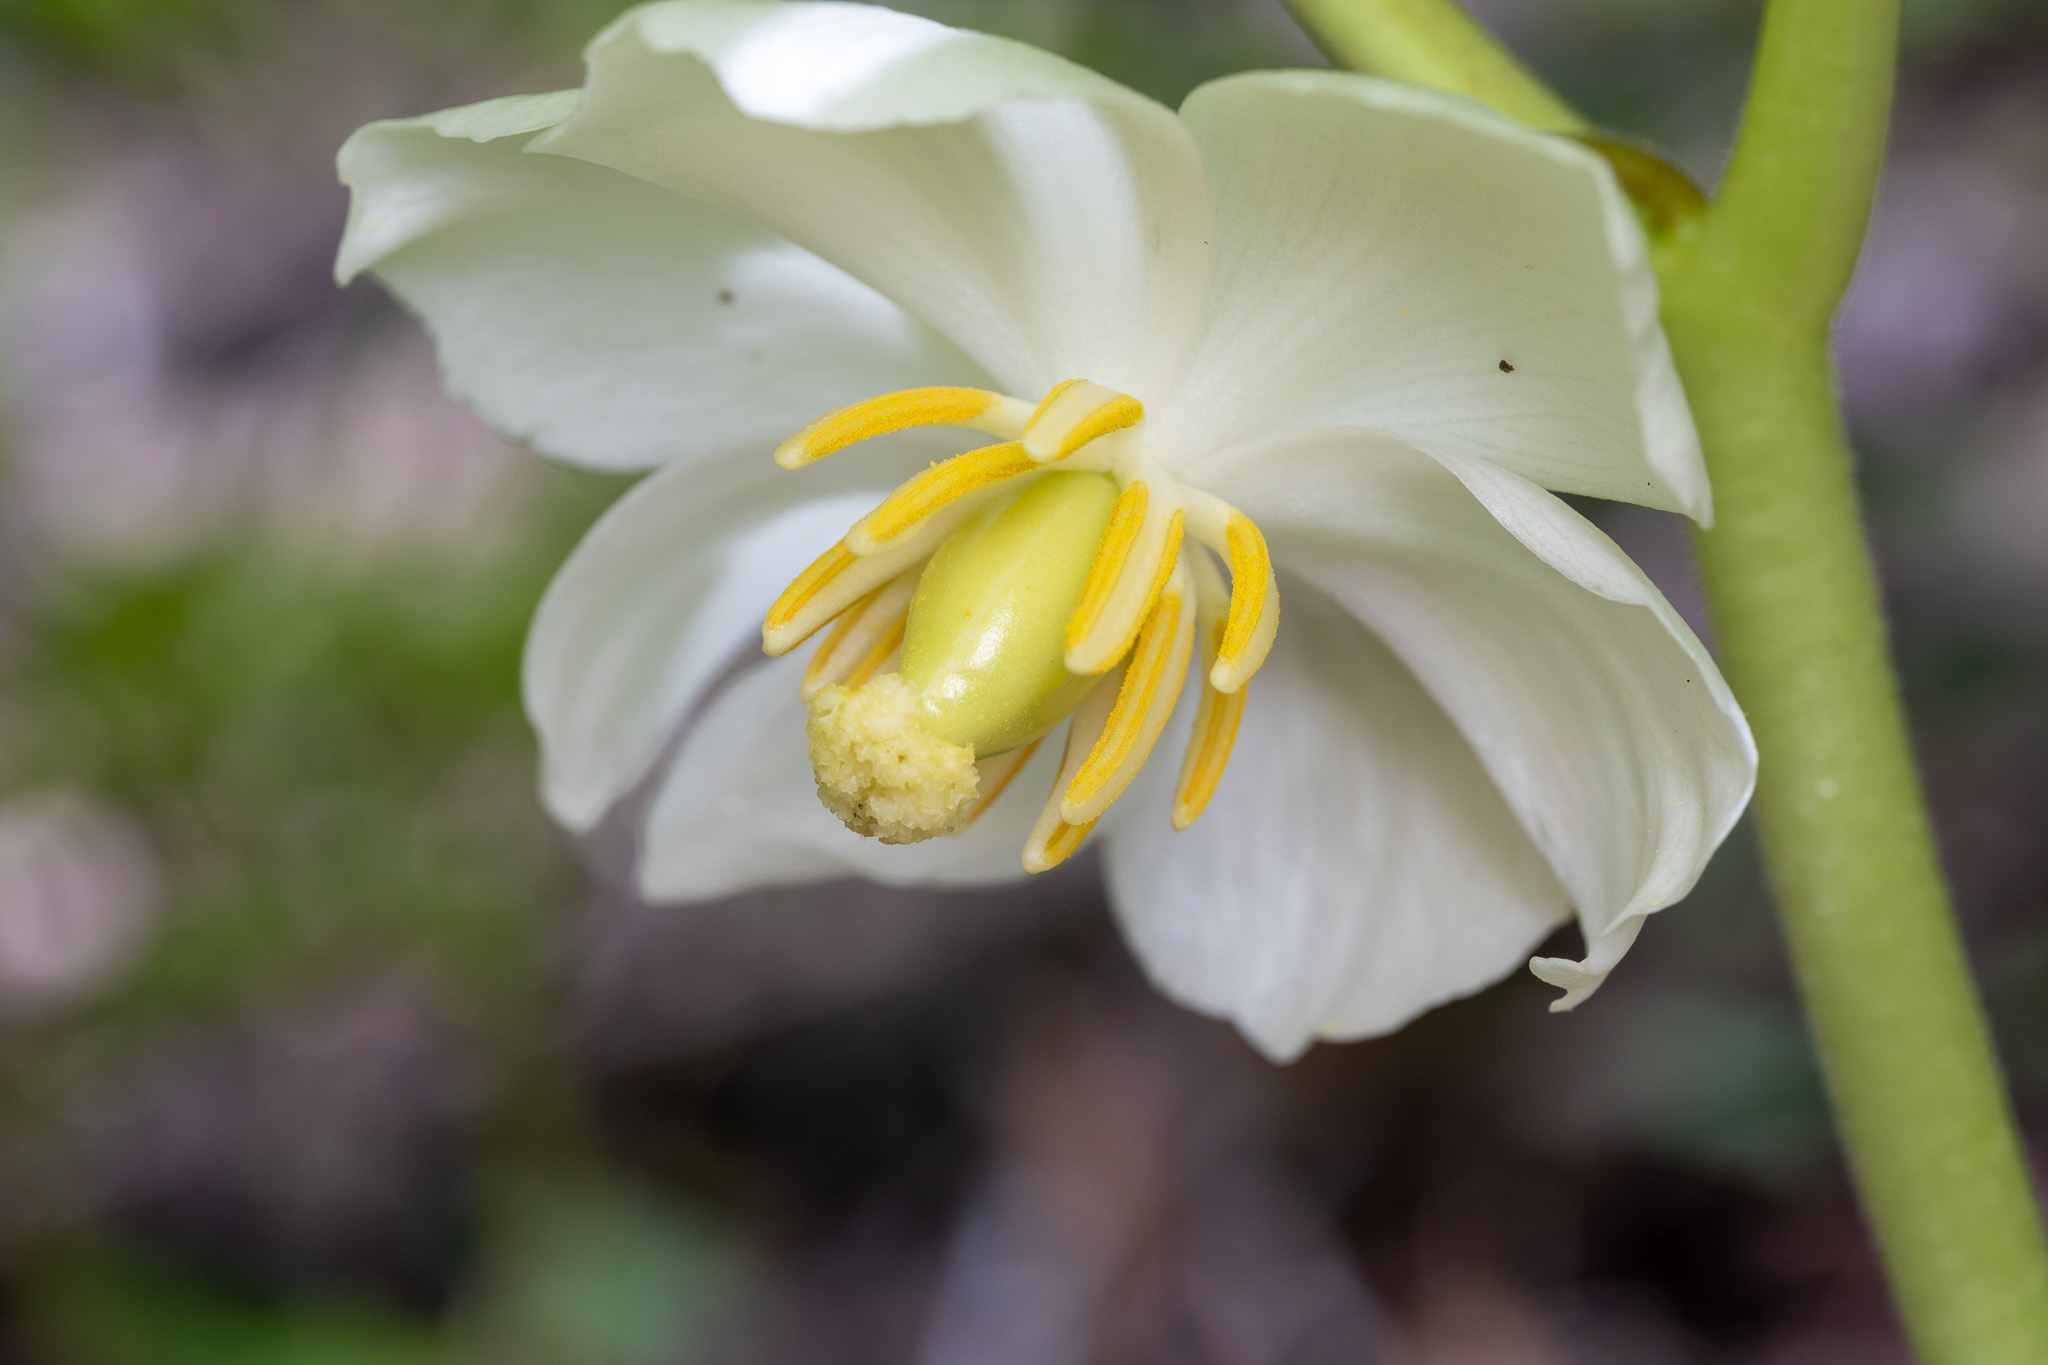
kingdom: Plantae
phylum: Tracheophyta
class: Magnoliopsida
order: Ranunculales
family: Berberidaceae
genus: Podophyllum
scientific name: Podophyllum peltatum
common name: Wild mandrake
